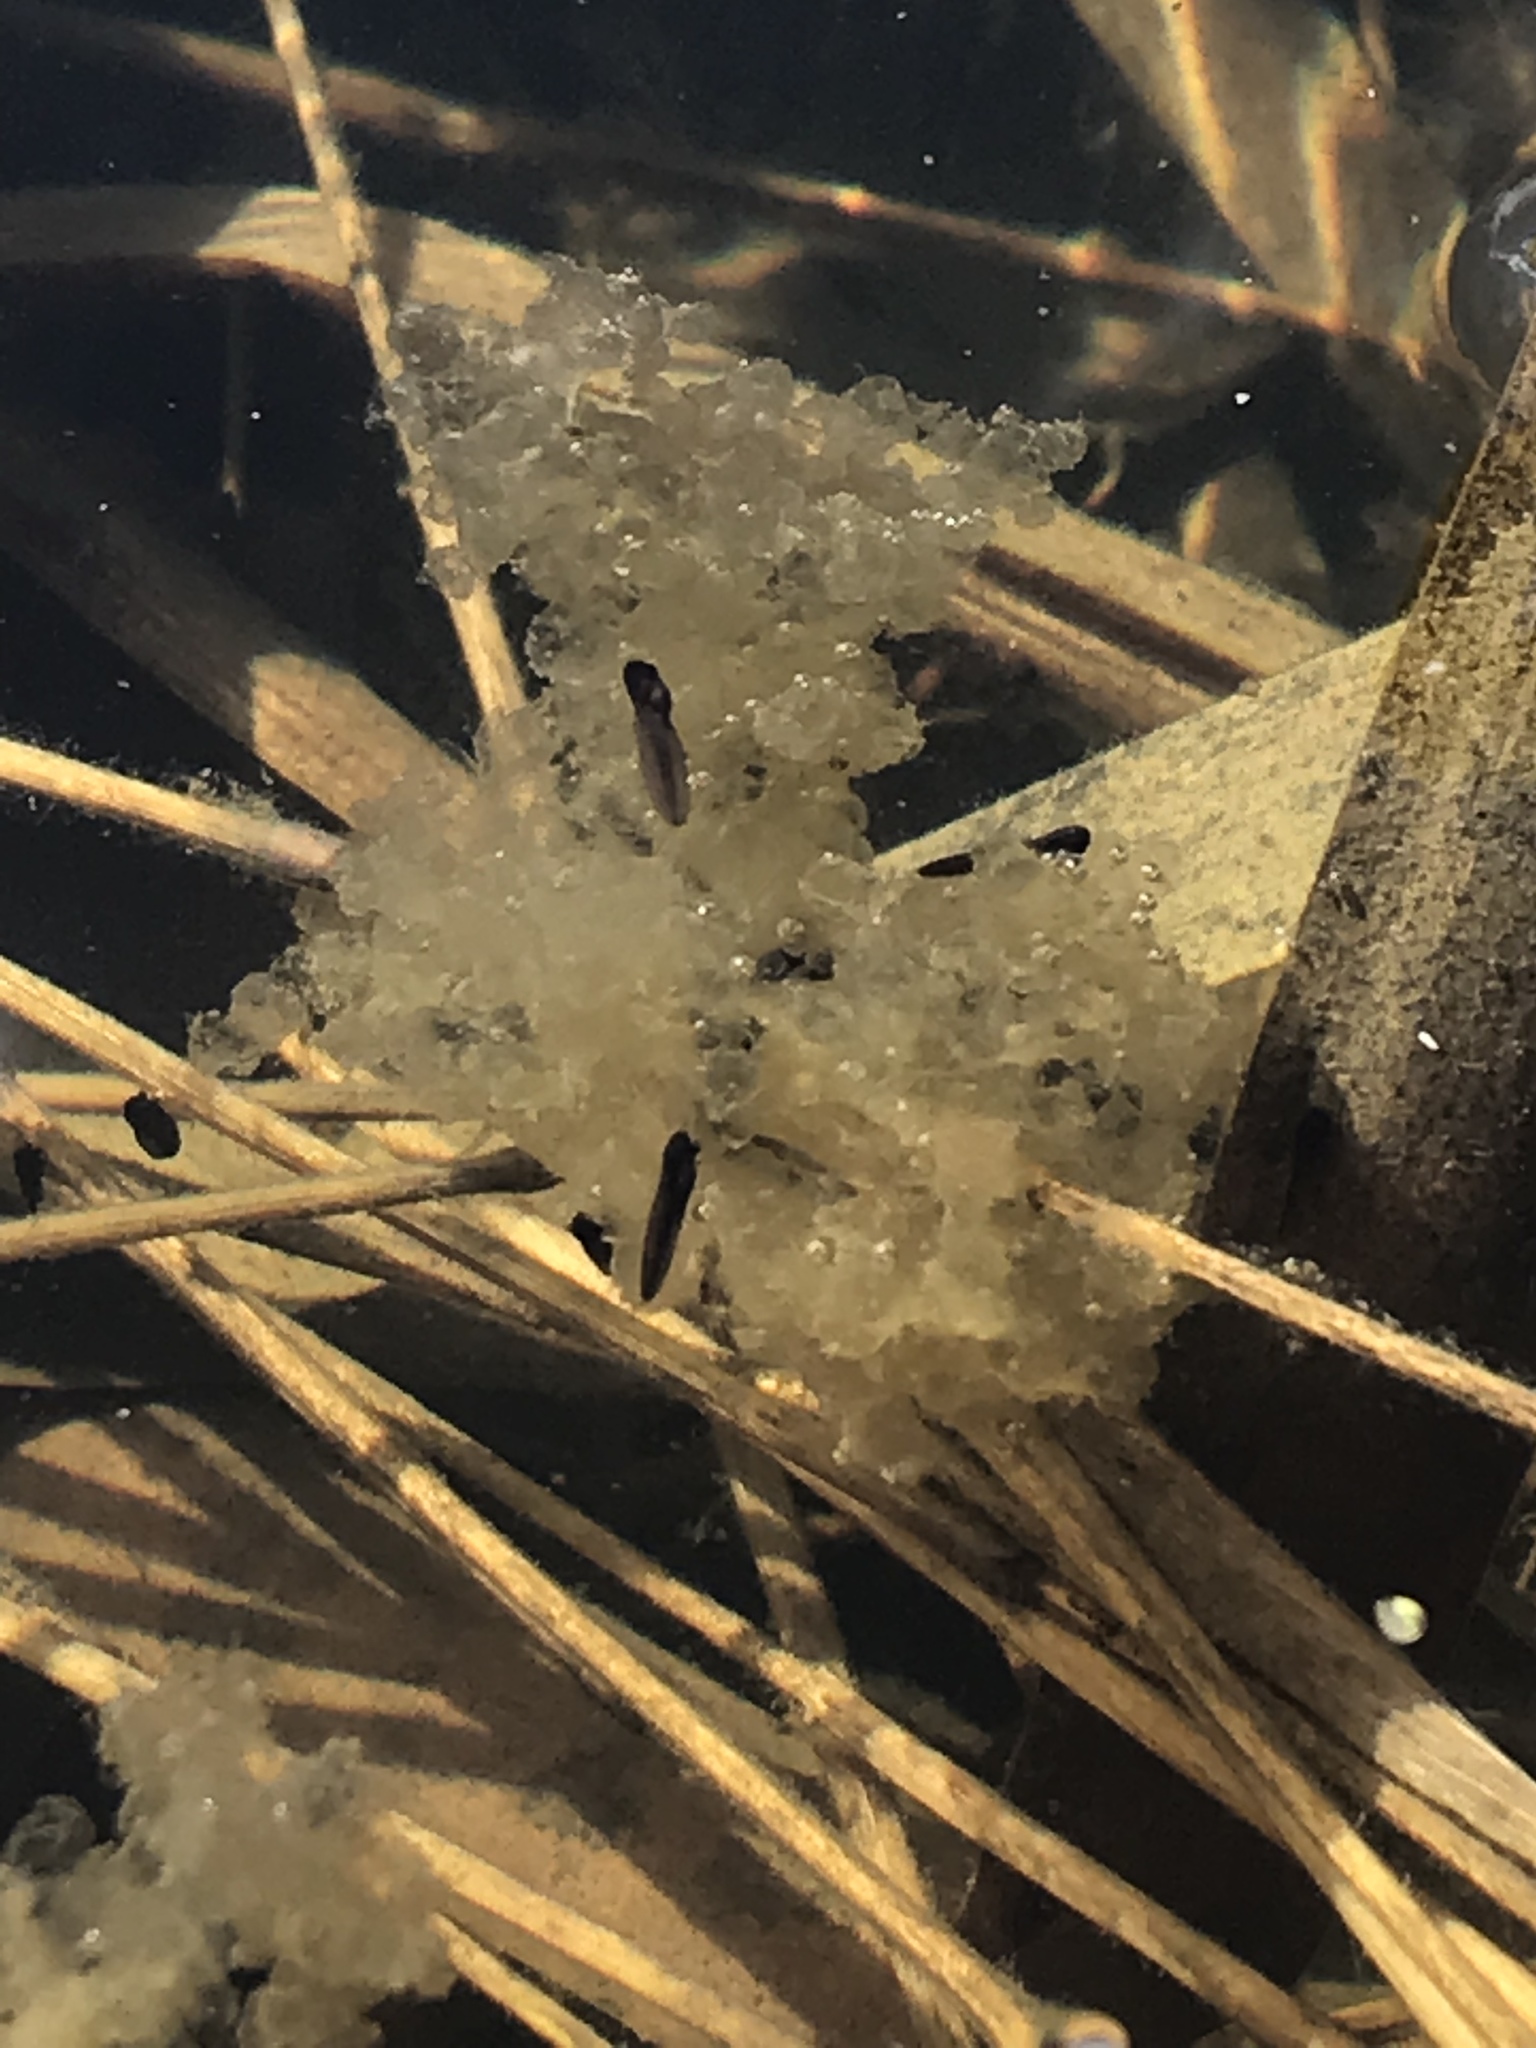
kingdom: Animalia
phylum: Chordata
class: Amphibia
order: Anura
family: Ranidae
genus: Lithobates
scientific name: Lithobates sylvaticus
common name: Wood frog
